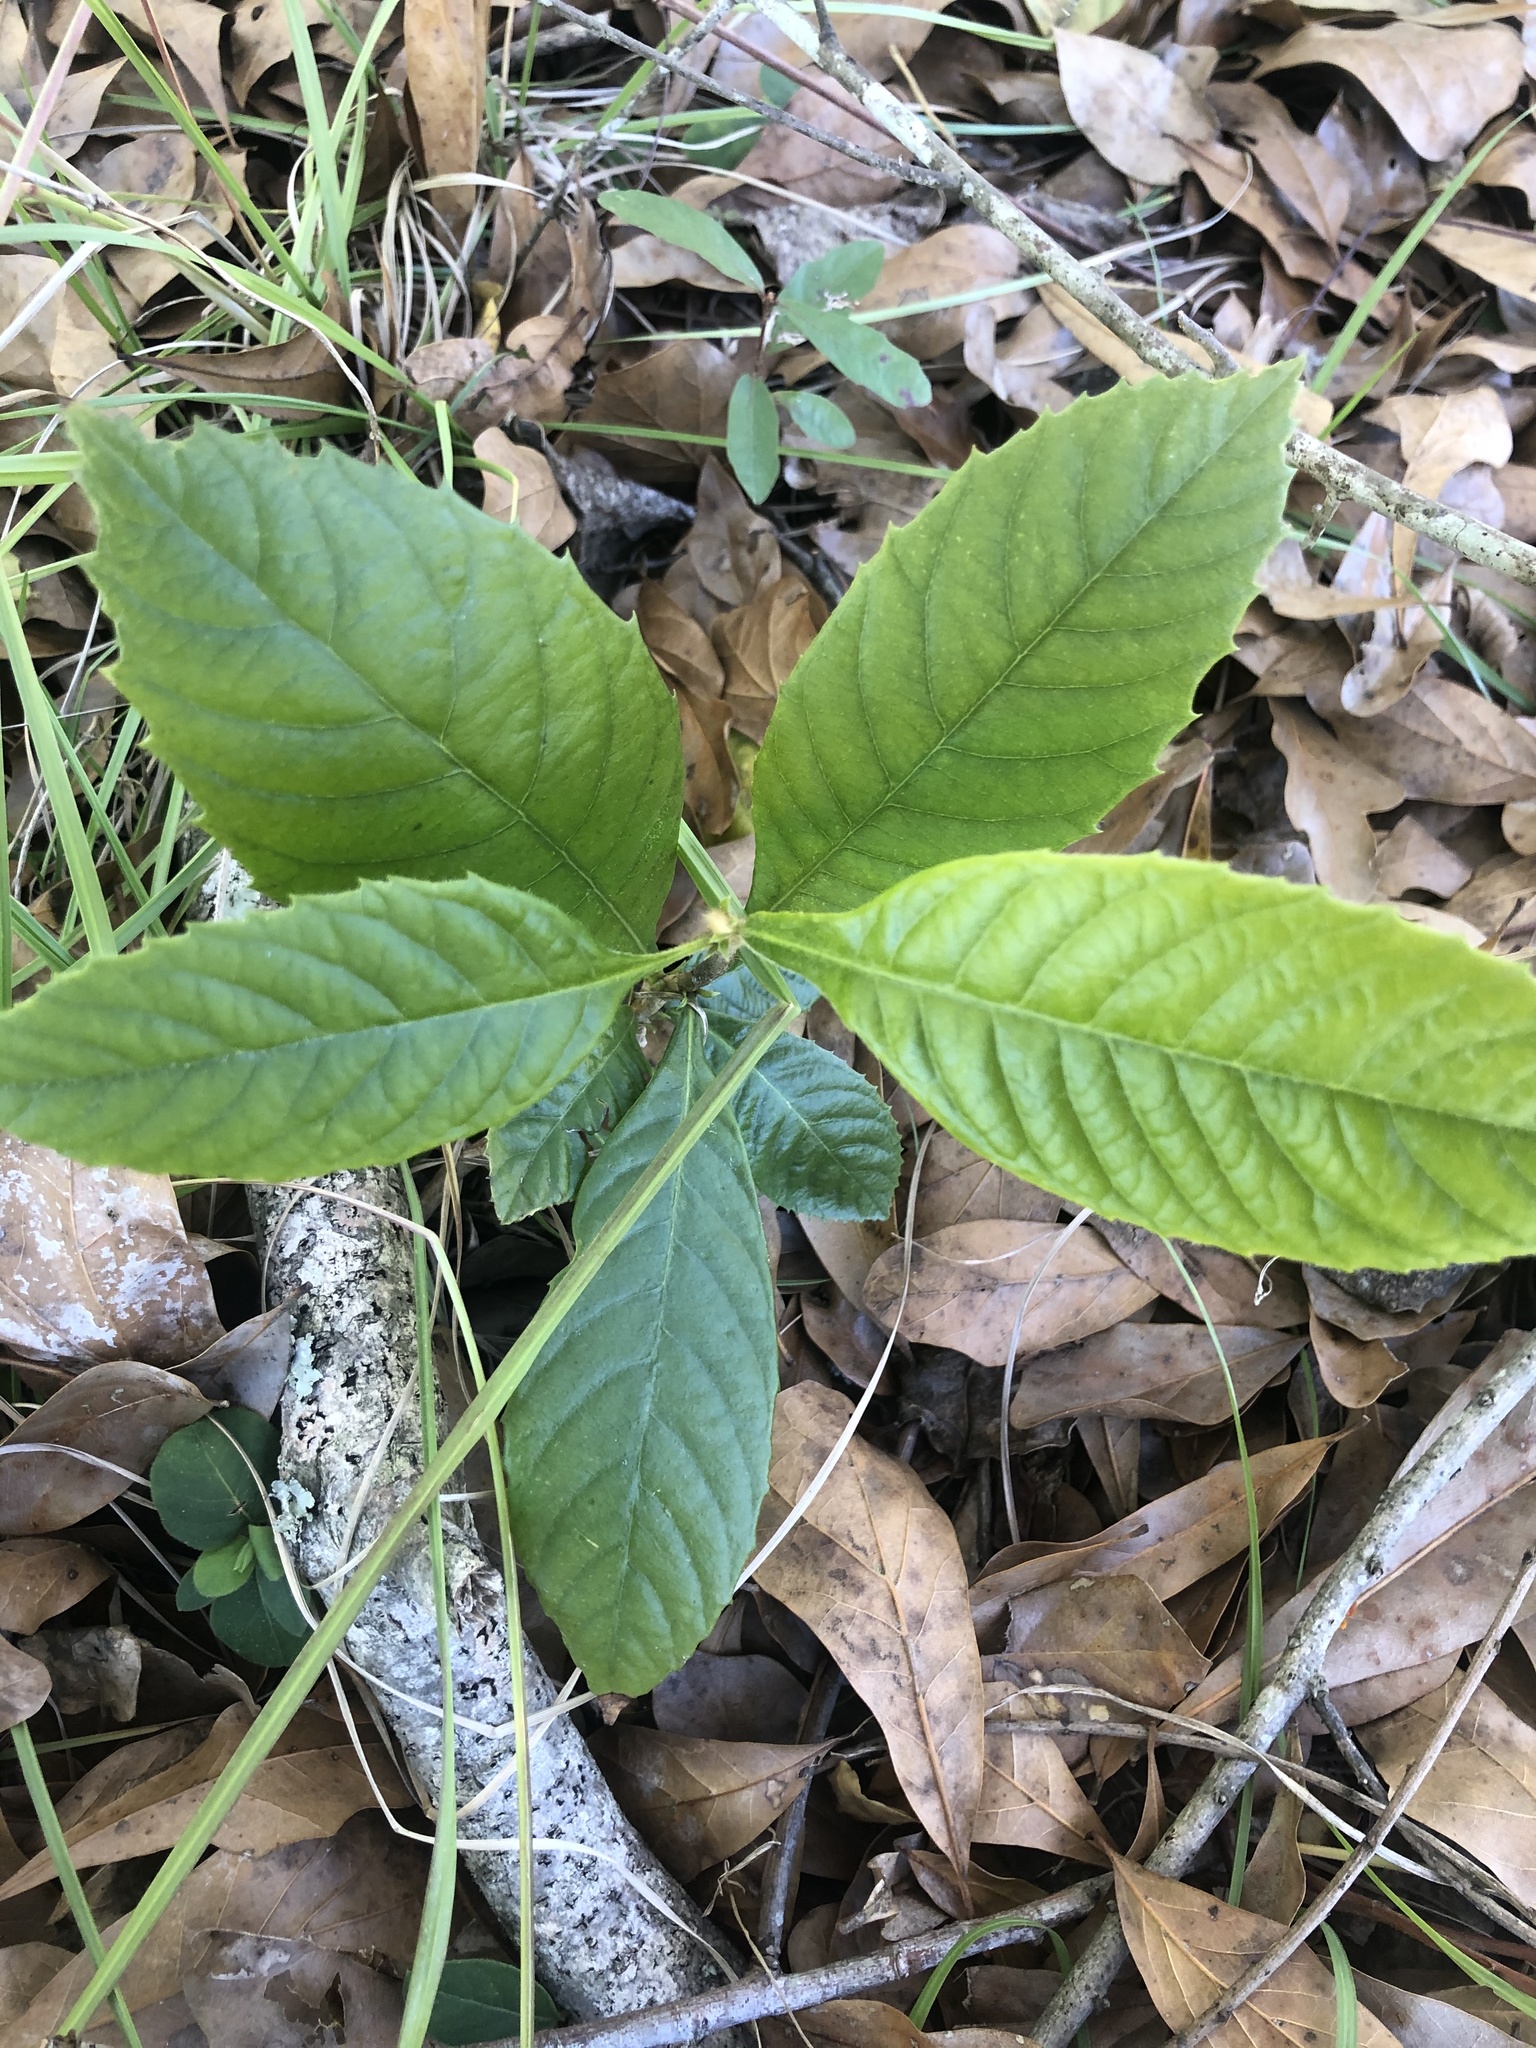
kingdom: Plantae
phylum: Tracheophyta
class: Magnoliopsida
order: Rosales
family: Rosaceae
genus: Rhaphiolepis
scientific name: Rhaphiolepis bibas
